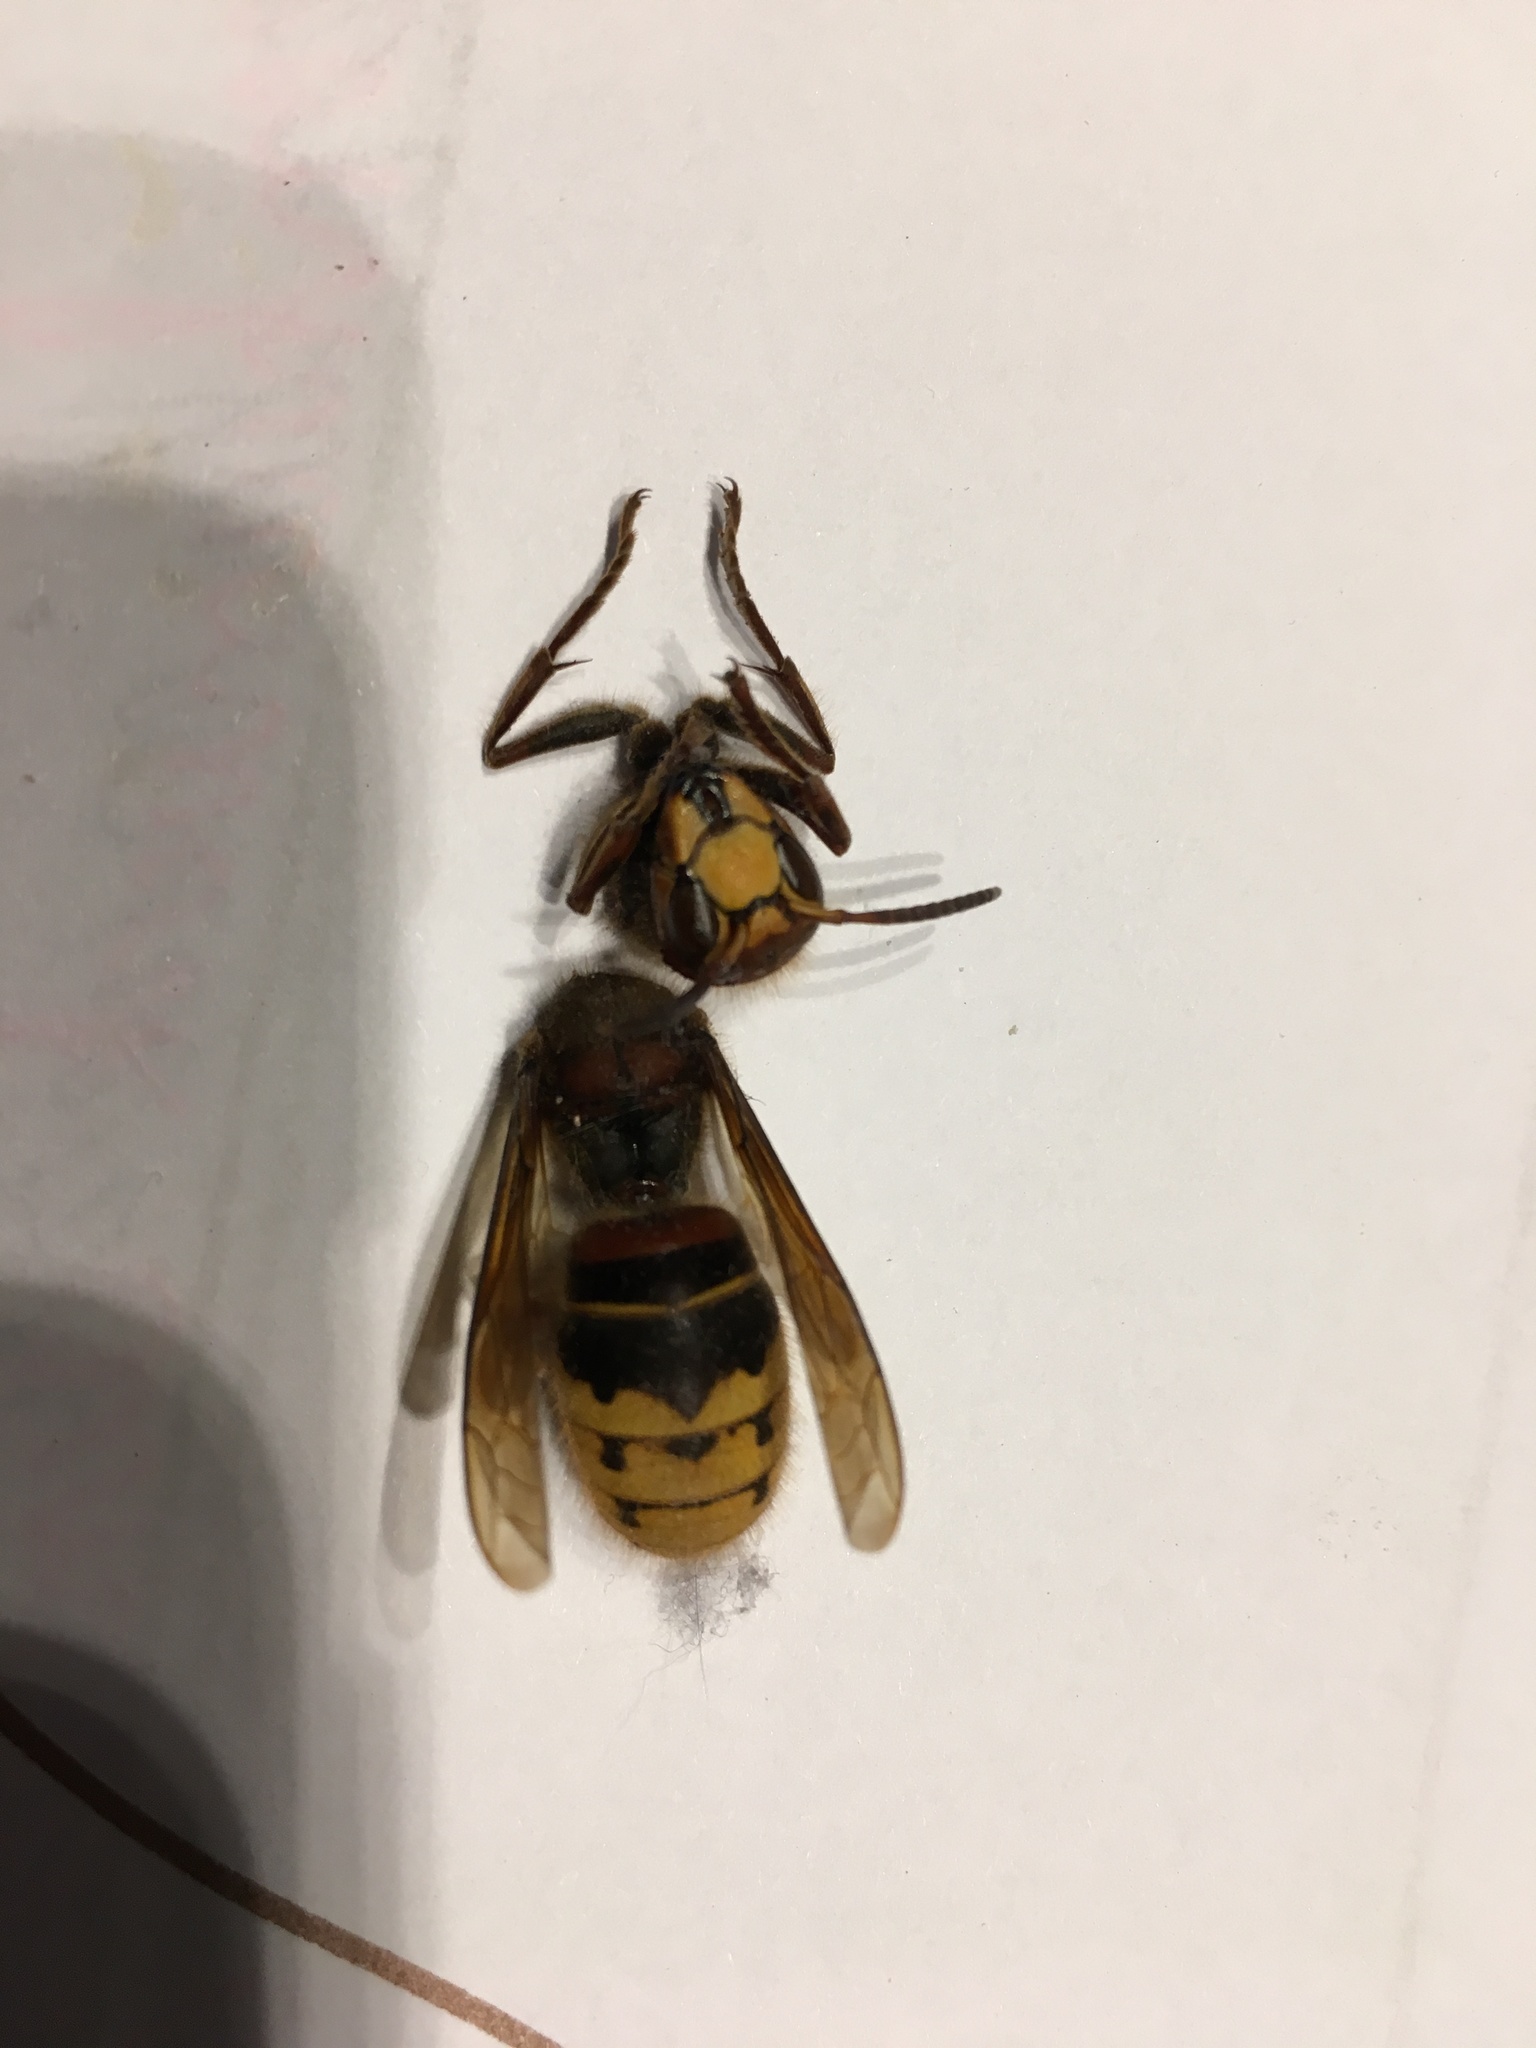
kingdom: Animalia
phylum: Arthropoda
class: Insecta
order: Hymenoptera
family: Vespidae
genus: Vespa
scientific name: Vespa crabro
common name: Hornet
